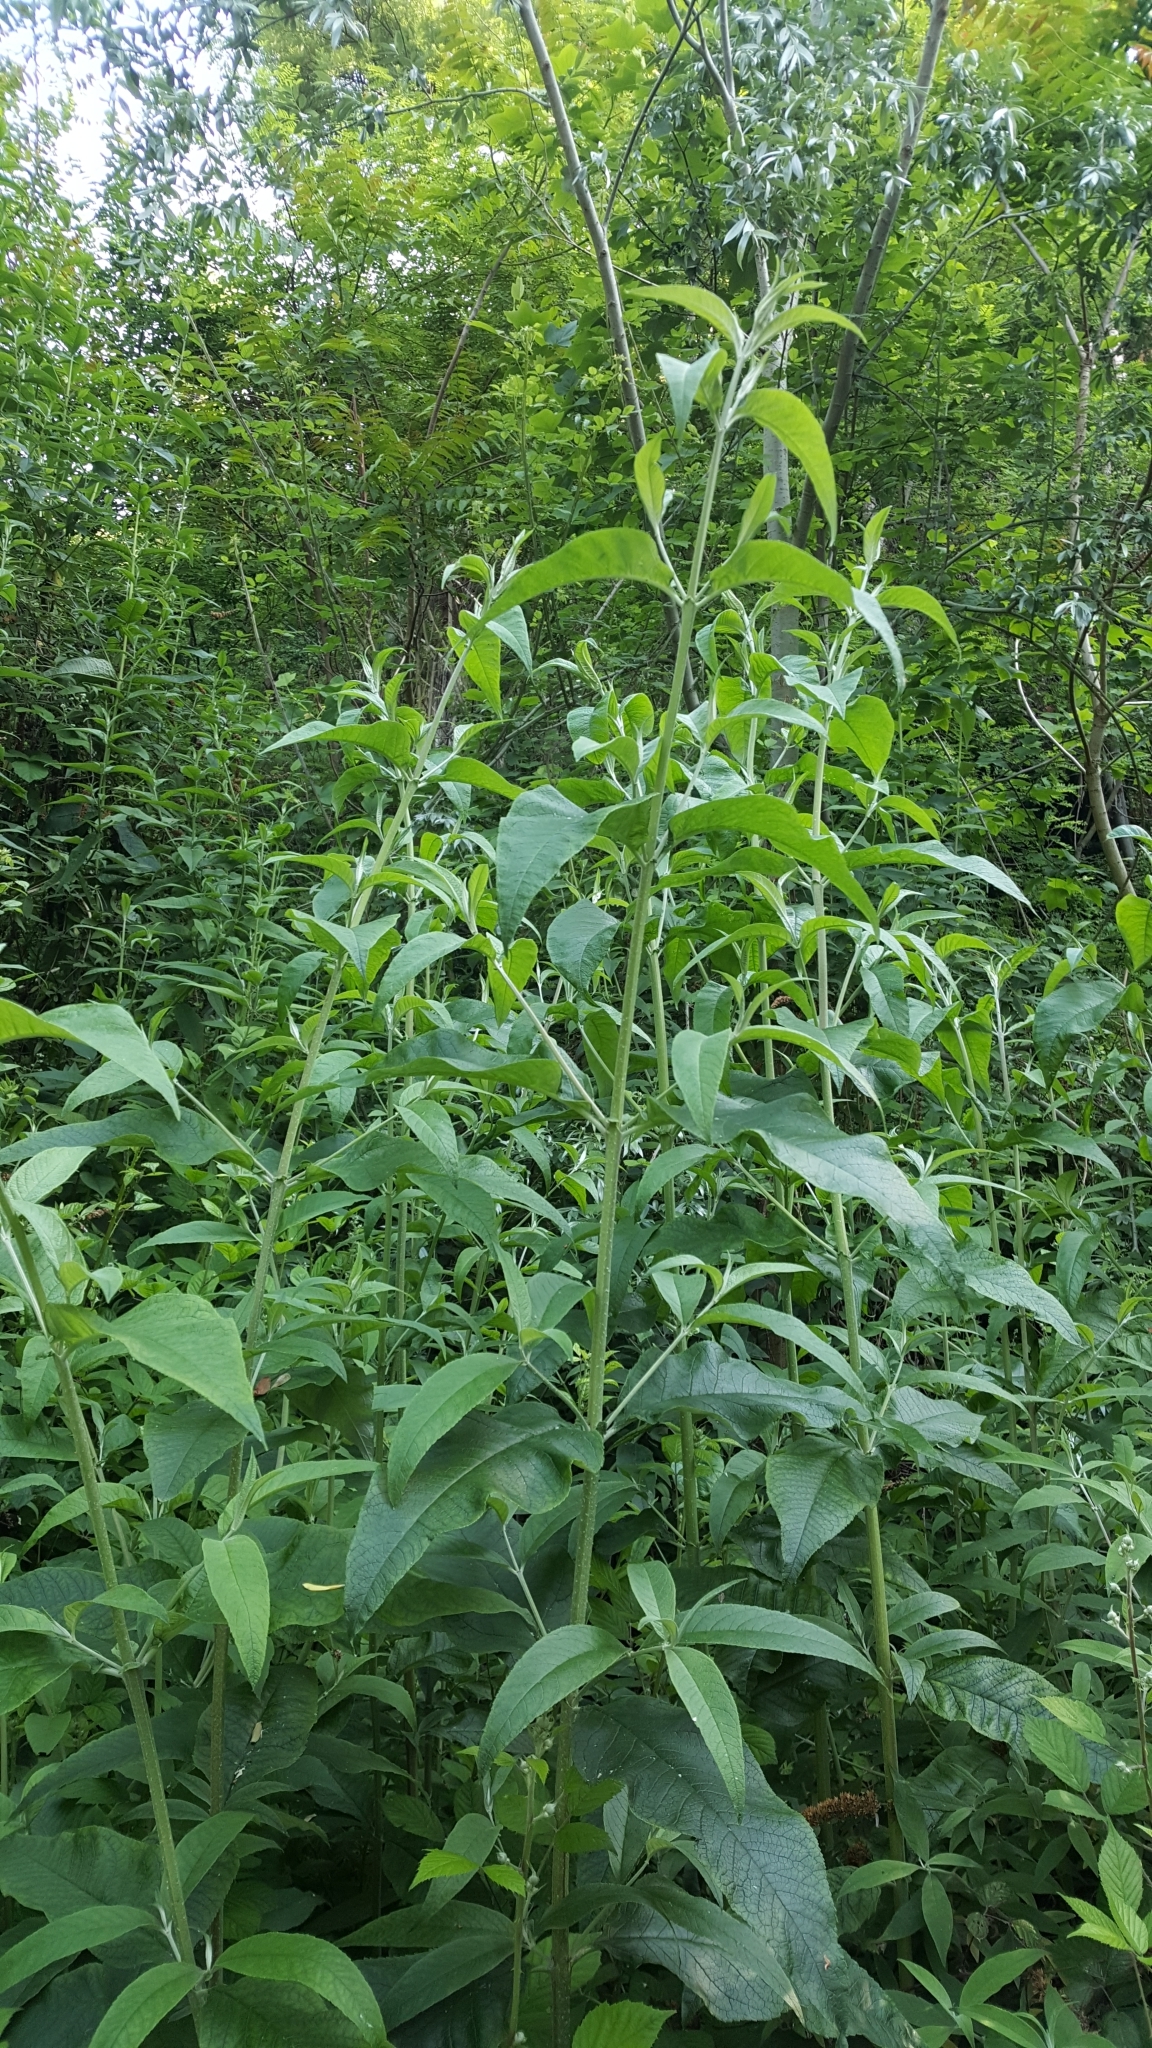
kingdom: Plantae
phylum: Tracheophyta
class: Magnoliopsida
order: Lamiales
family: Scrophulariaceae
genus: Buddleja
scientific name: Buddleja davidii
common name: Butterfly-bush
